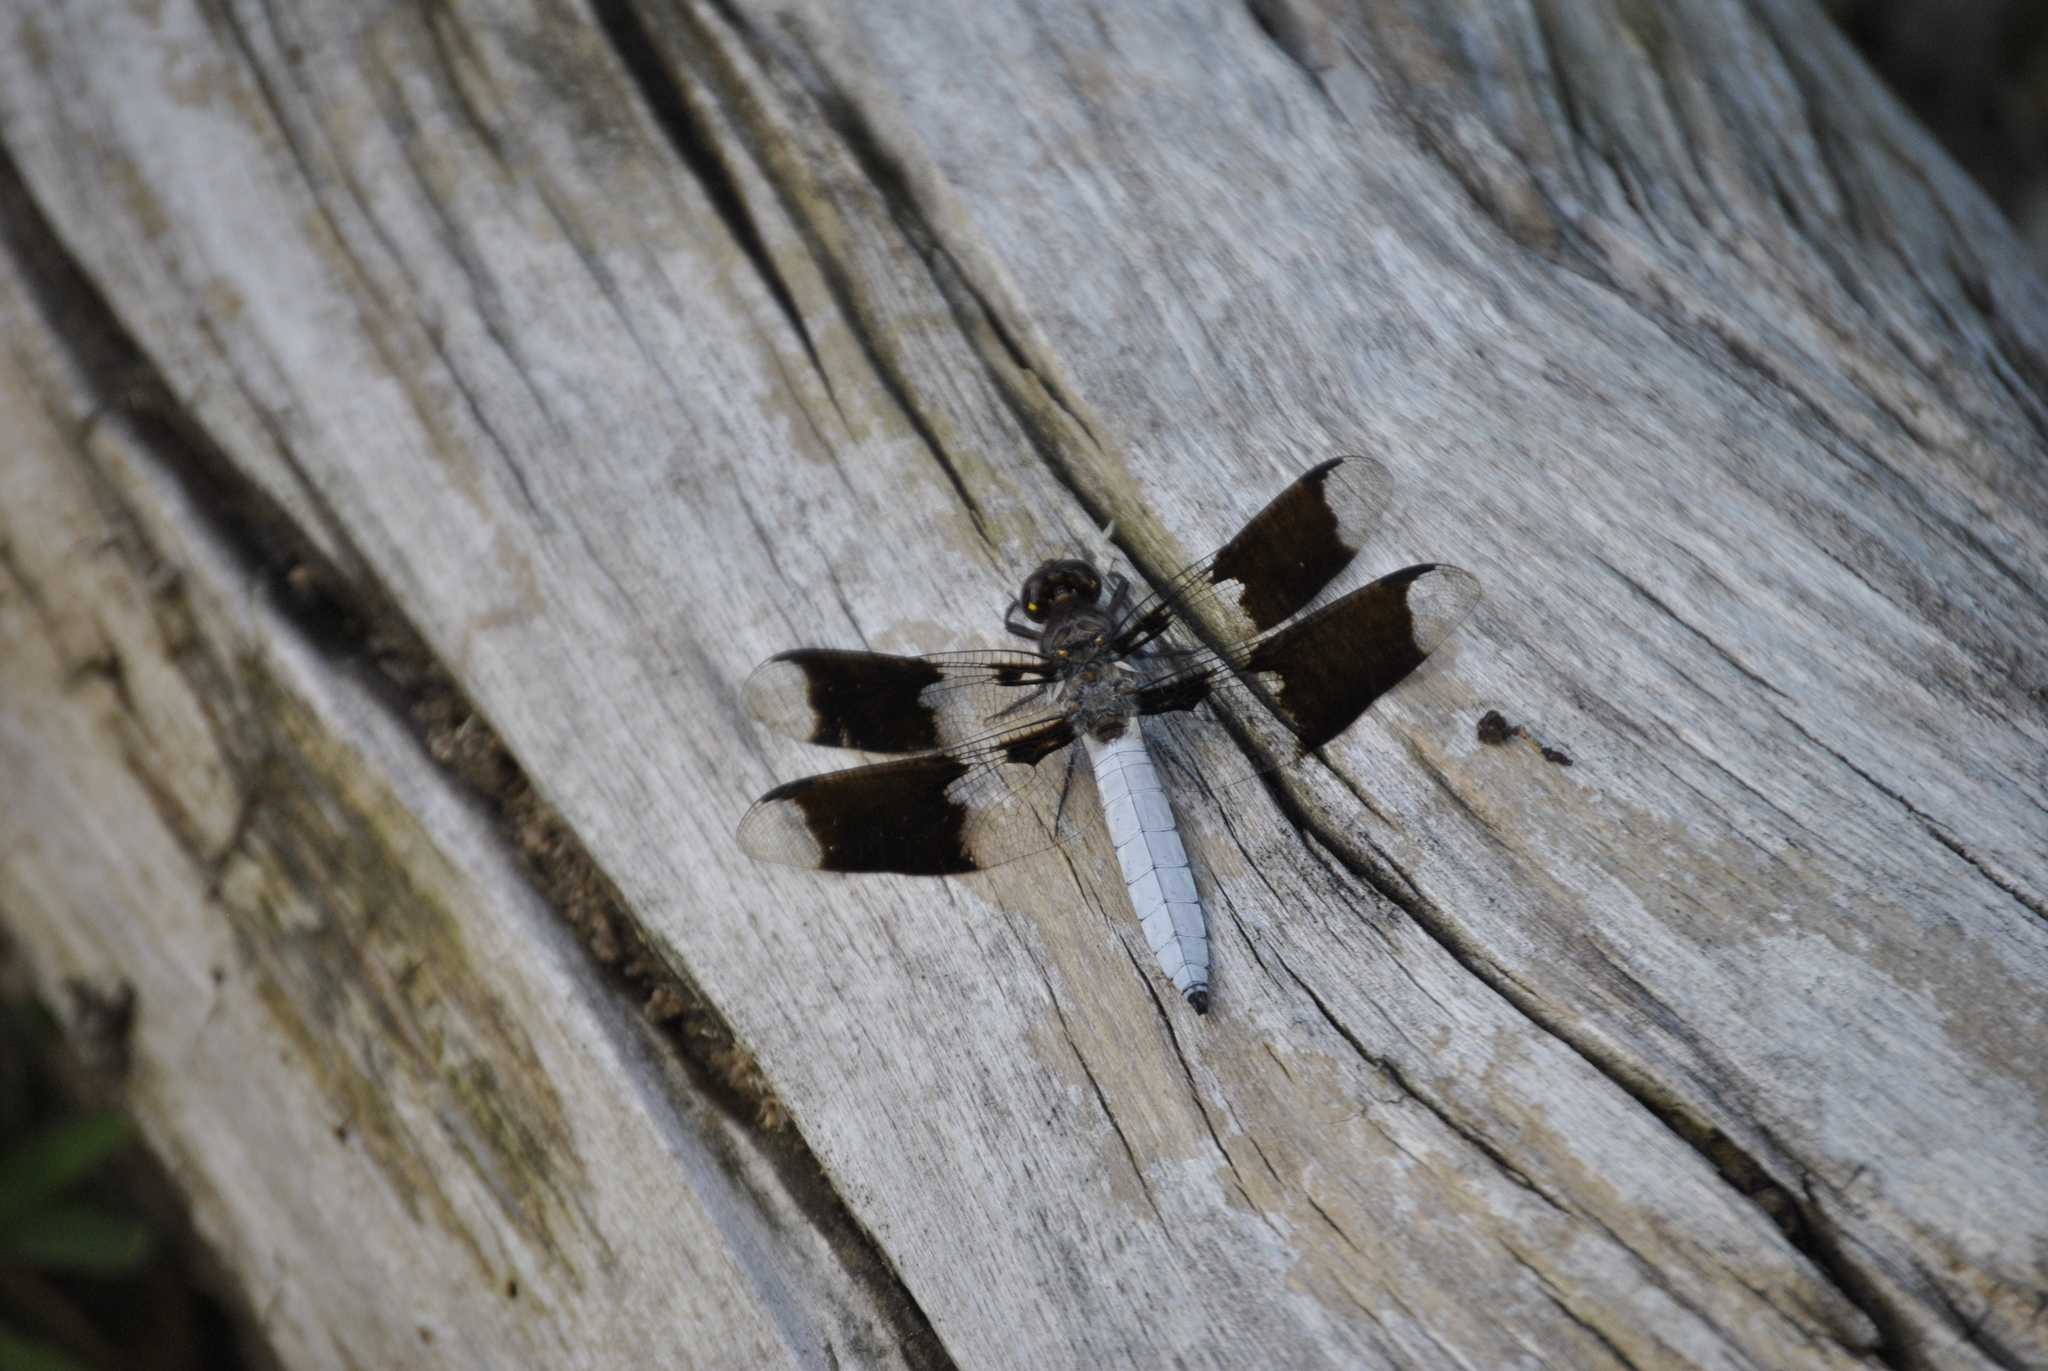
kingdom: Animalia
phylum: Arthropoda
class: Insecta
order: Odonata
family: Libellulidae
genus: Plathemis
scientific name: Plathemis lydia
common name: Common whitetail
